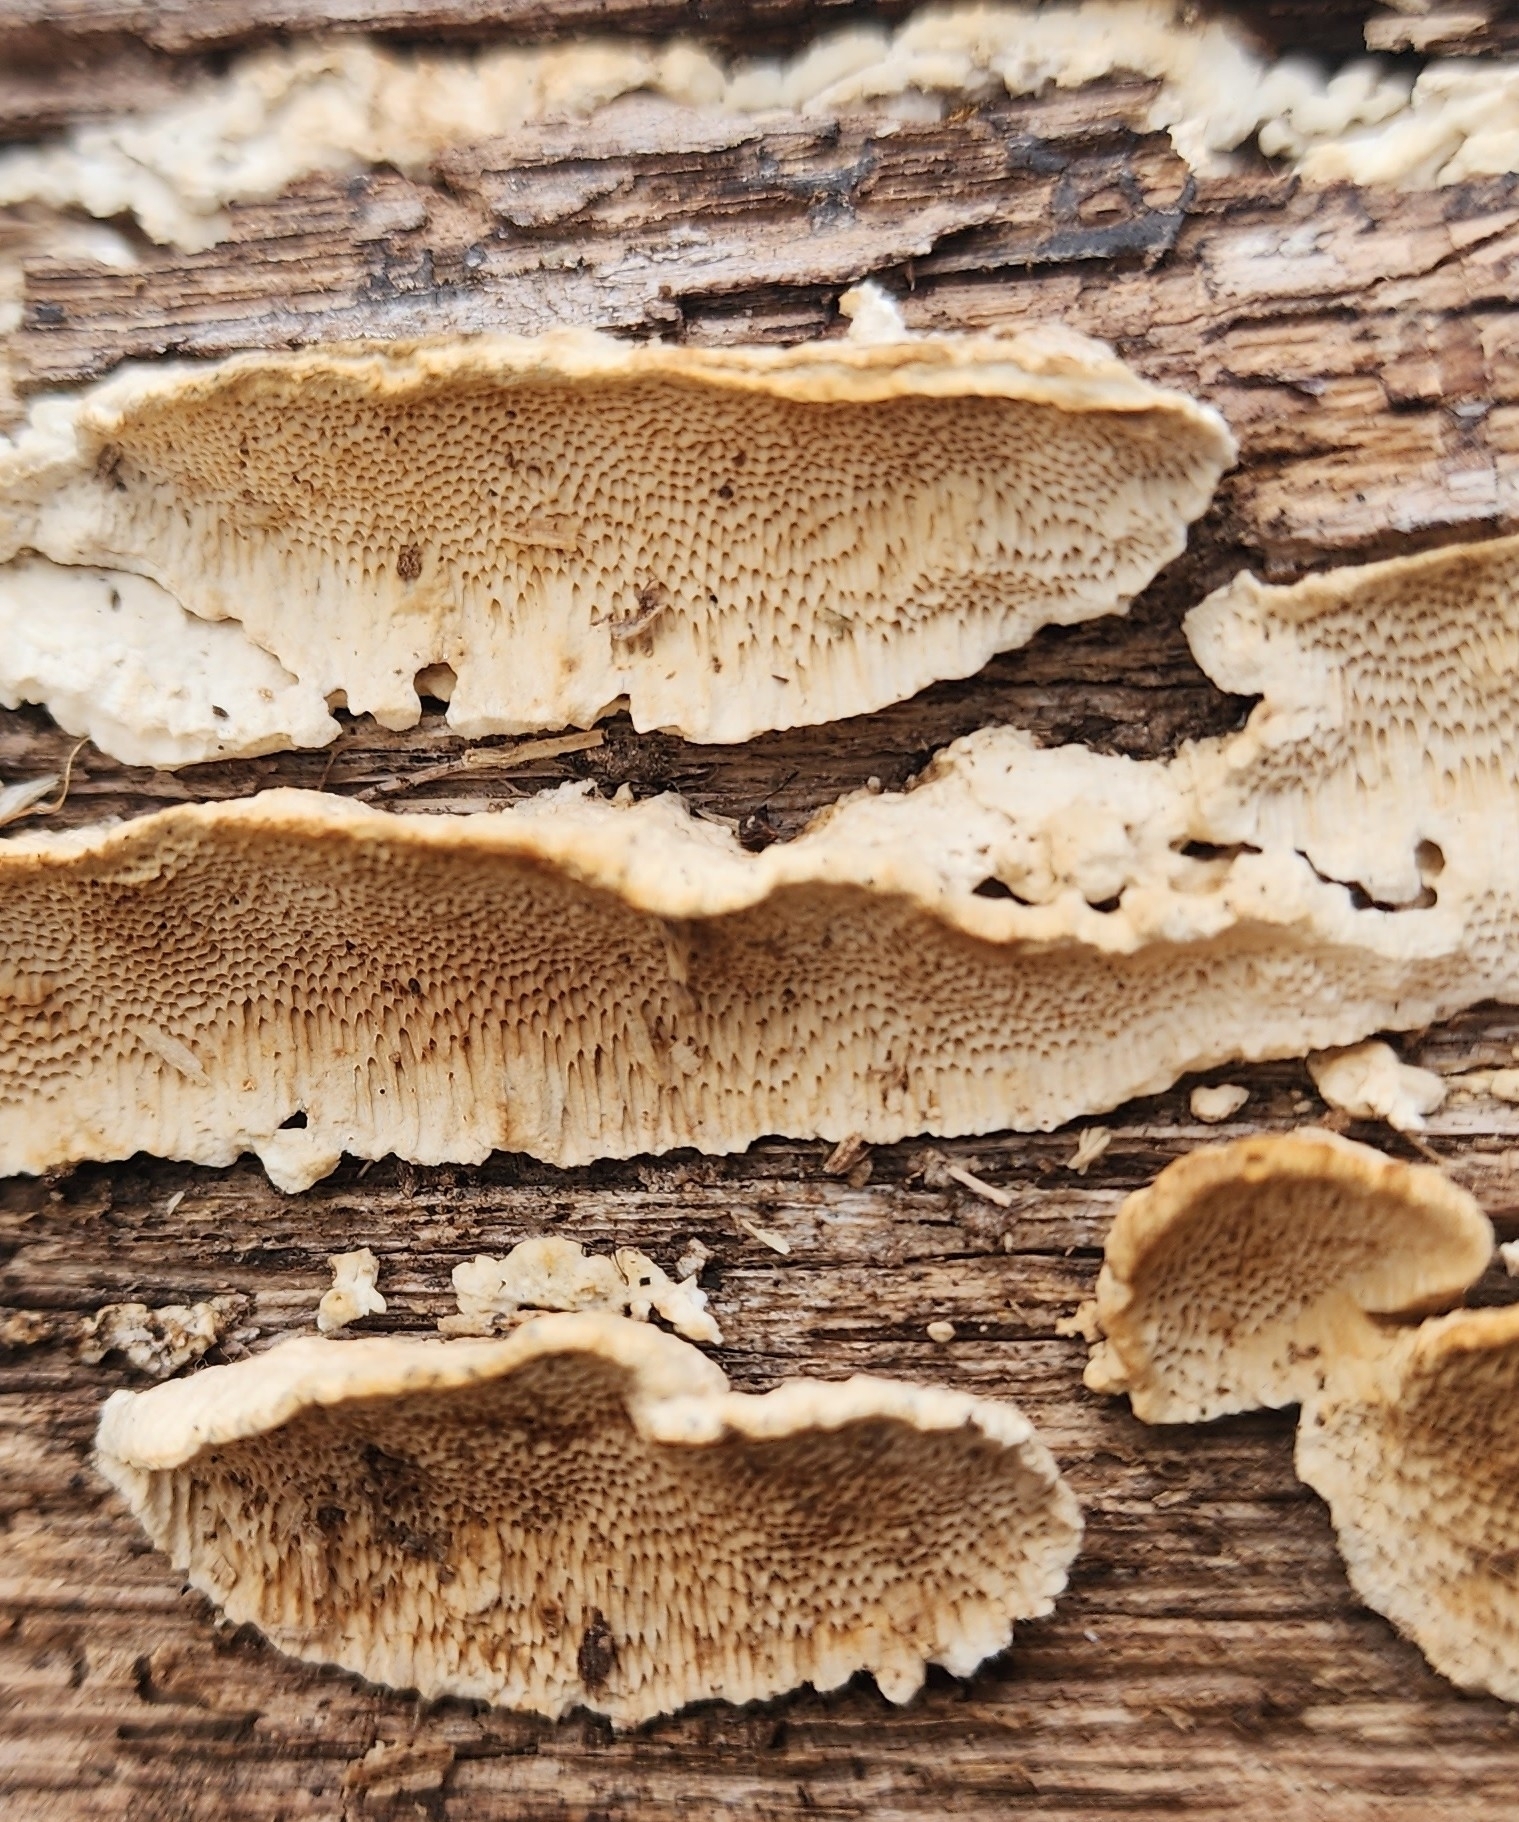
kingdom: Fungi
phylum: Basidiomycota
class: Agaricomycetes
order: Polyporales
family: Irpicaceae
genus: Irpex
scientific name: Irpex lacteus
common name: Milk-white toothed polypore
